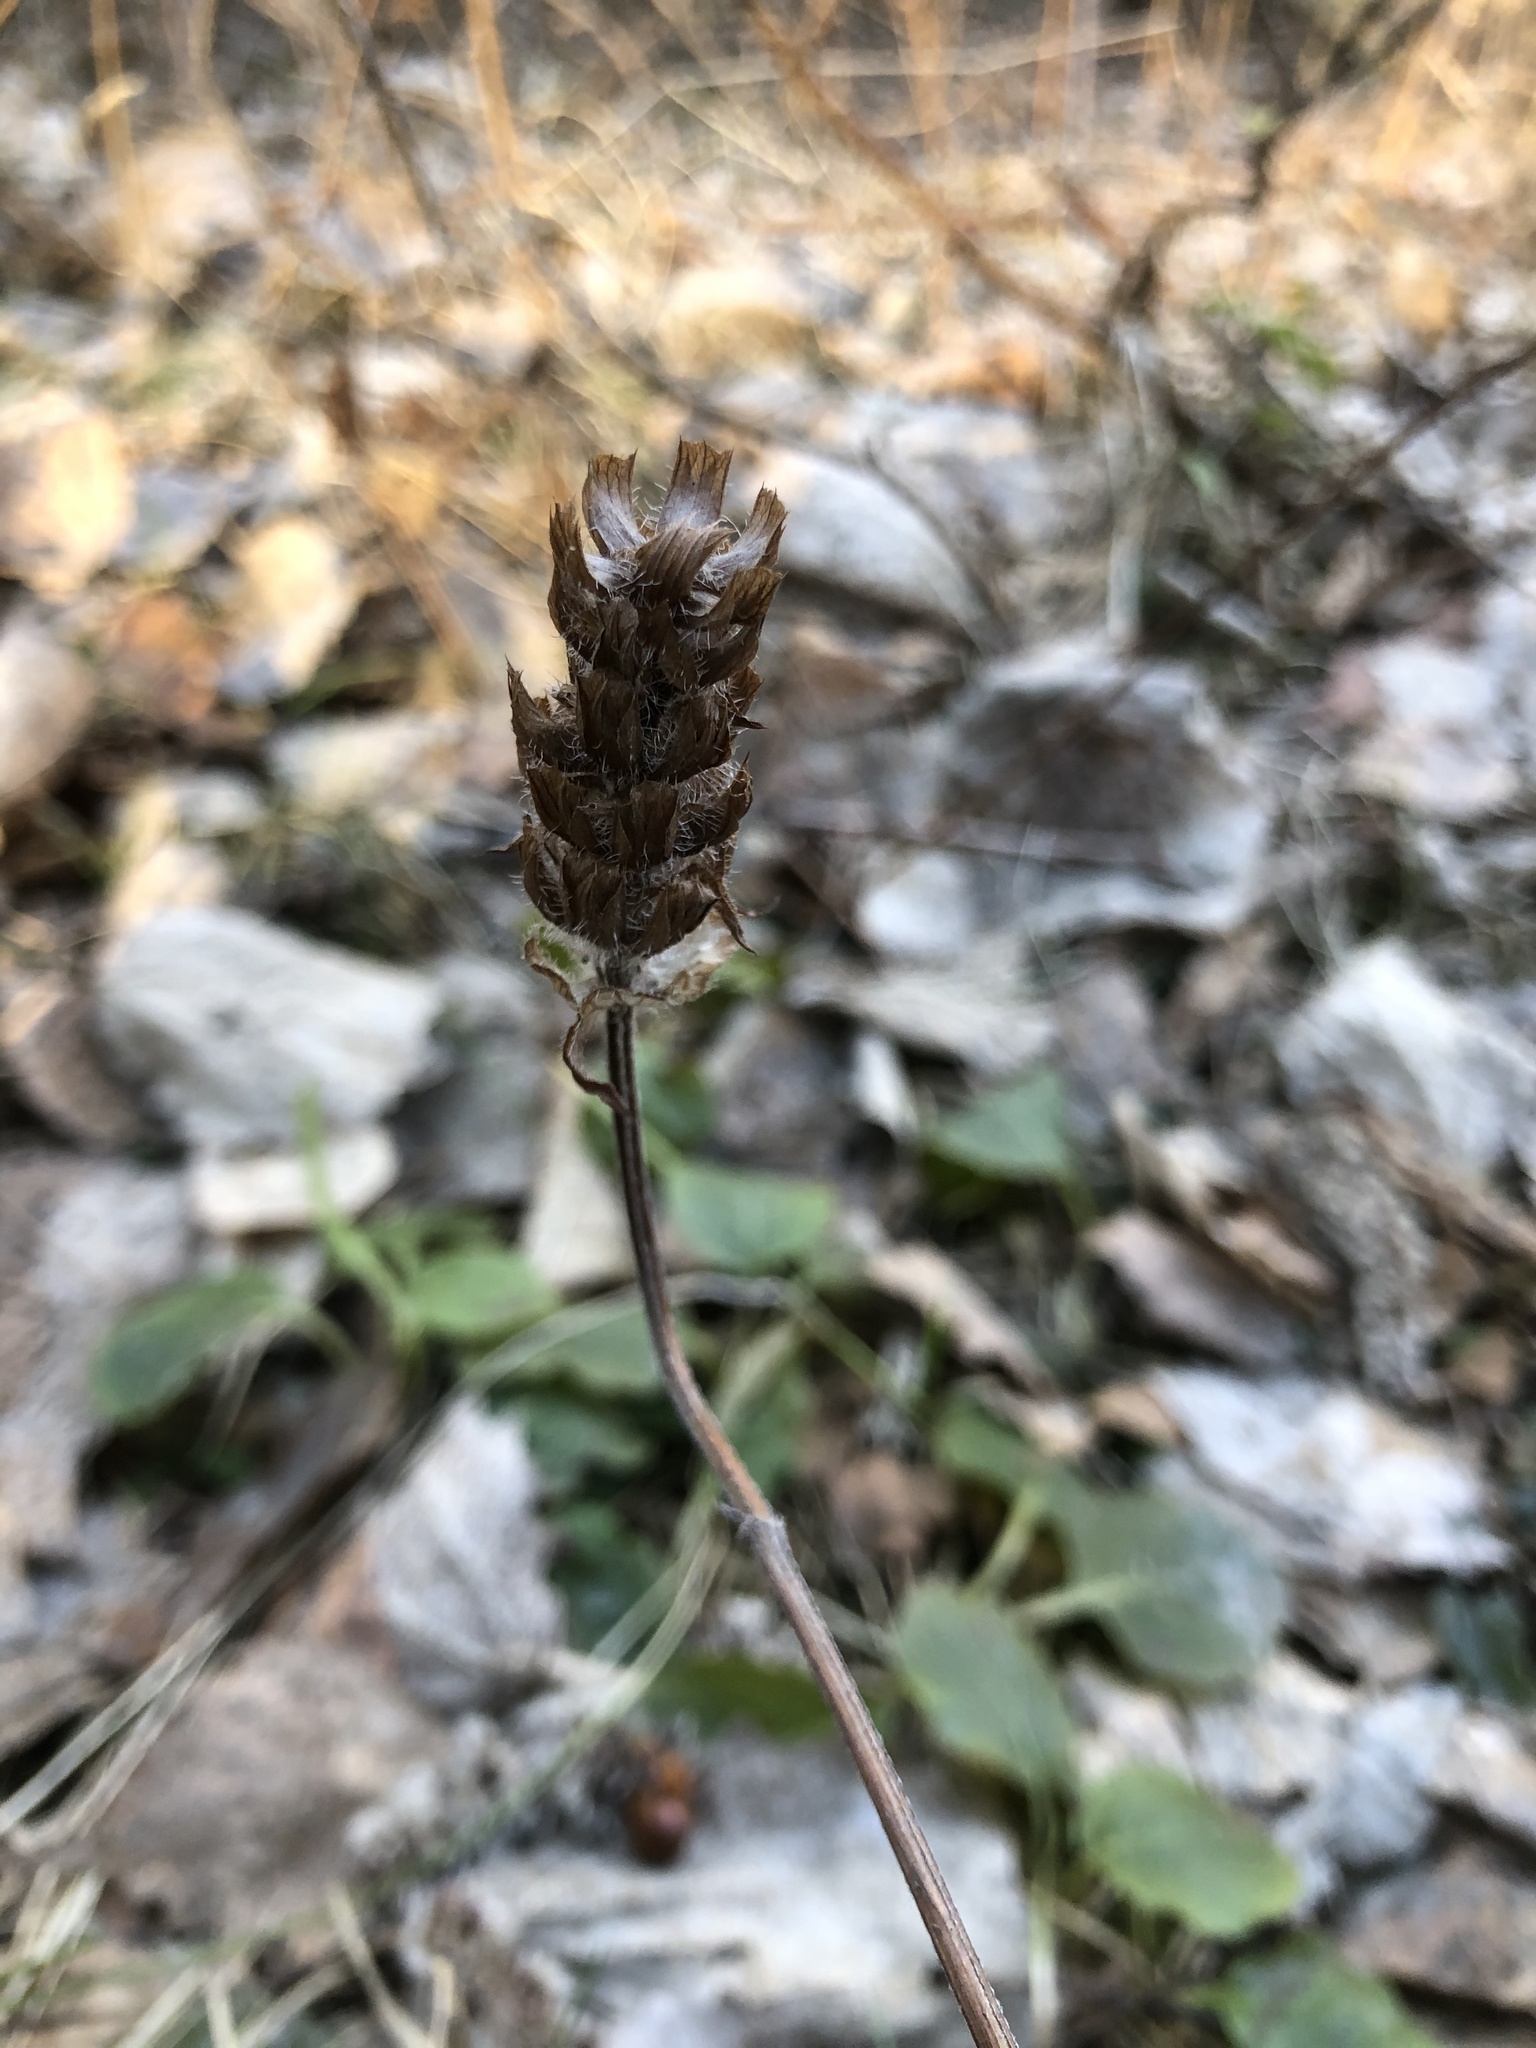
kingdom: Plantae
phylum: Tracheophyta
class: Magnoliopsida
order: Lamiales
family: Lamiaceae
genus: Prunella
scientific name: Prunella vulgaris
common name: Heal-all
